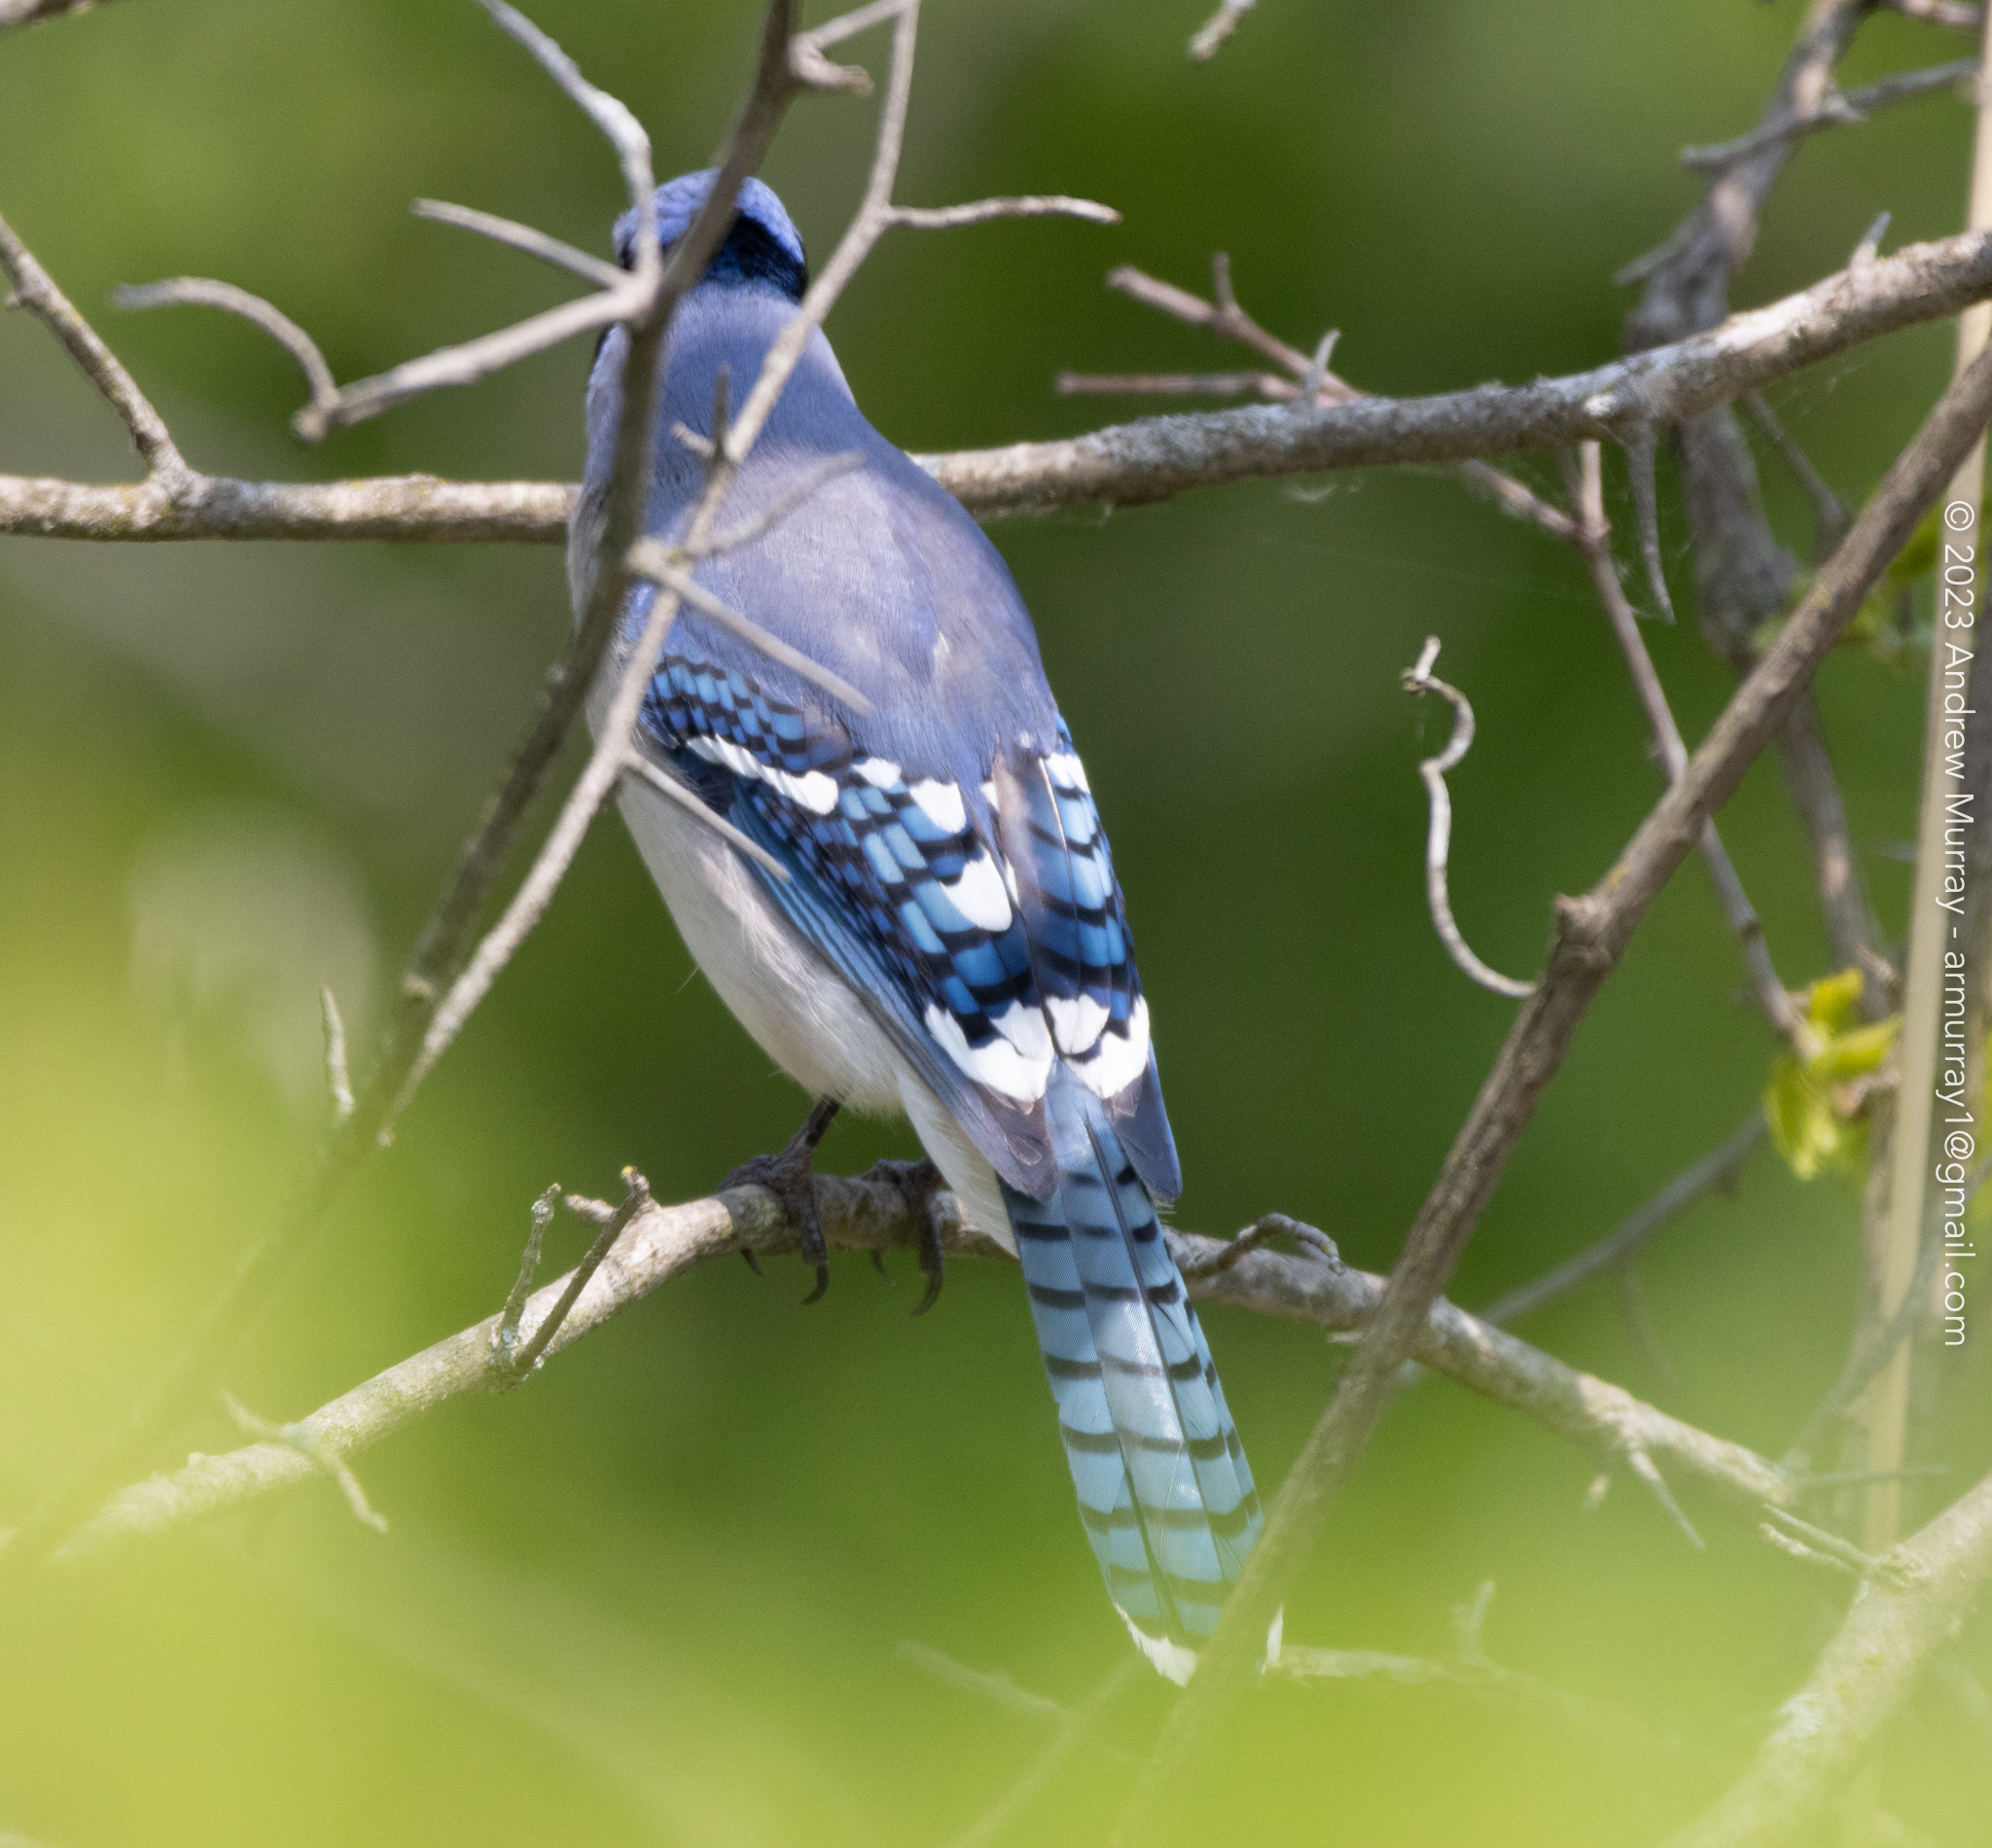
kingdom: Animalia
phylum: Chordata
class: Aves
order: Passeriformes
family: Corvidae
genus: Cyanocitta
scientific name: Cyanocitta cristata
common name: Blue jay
